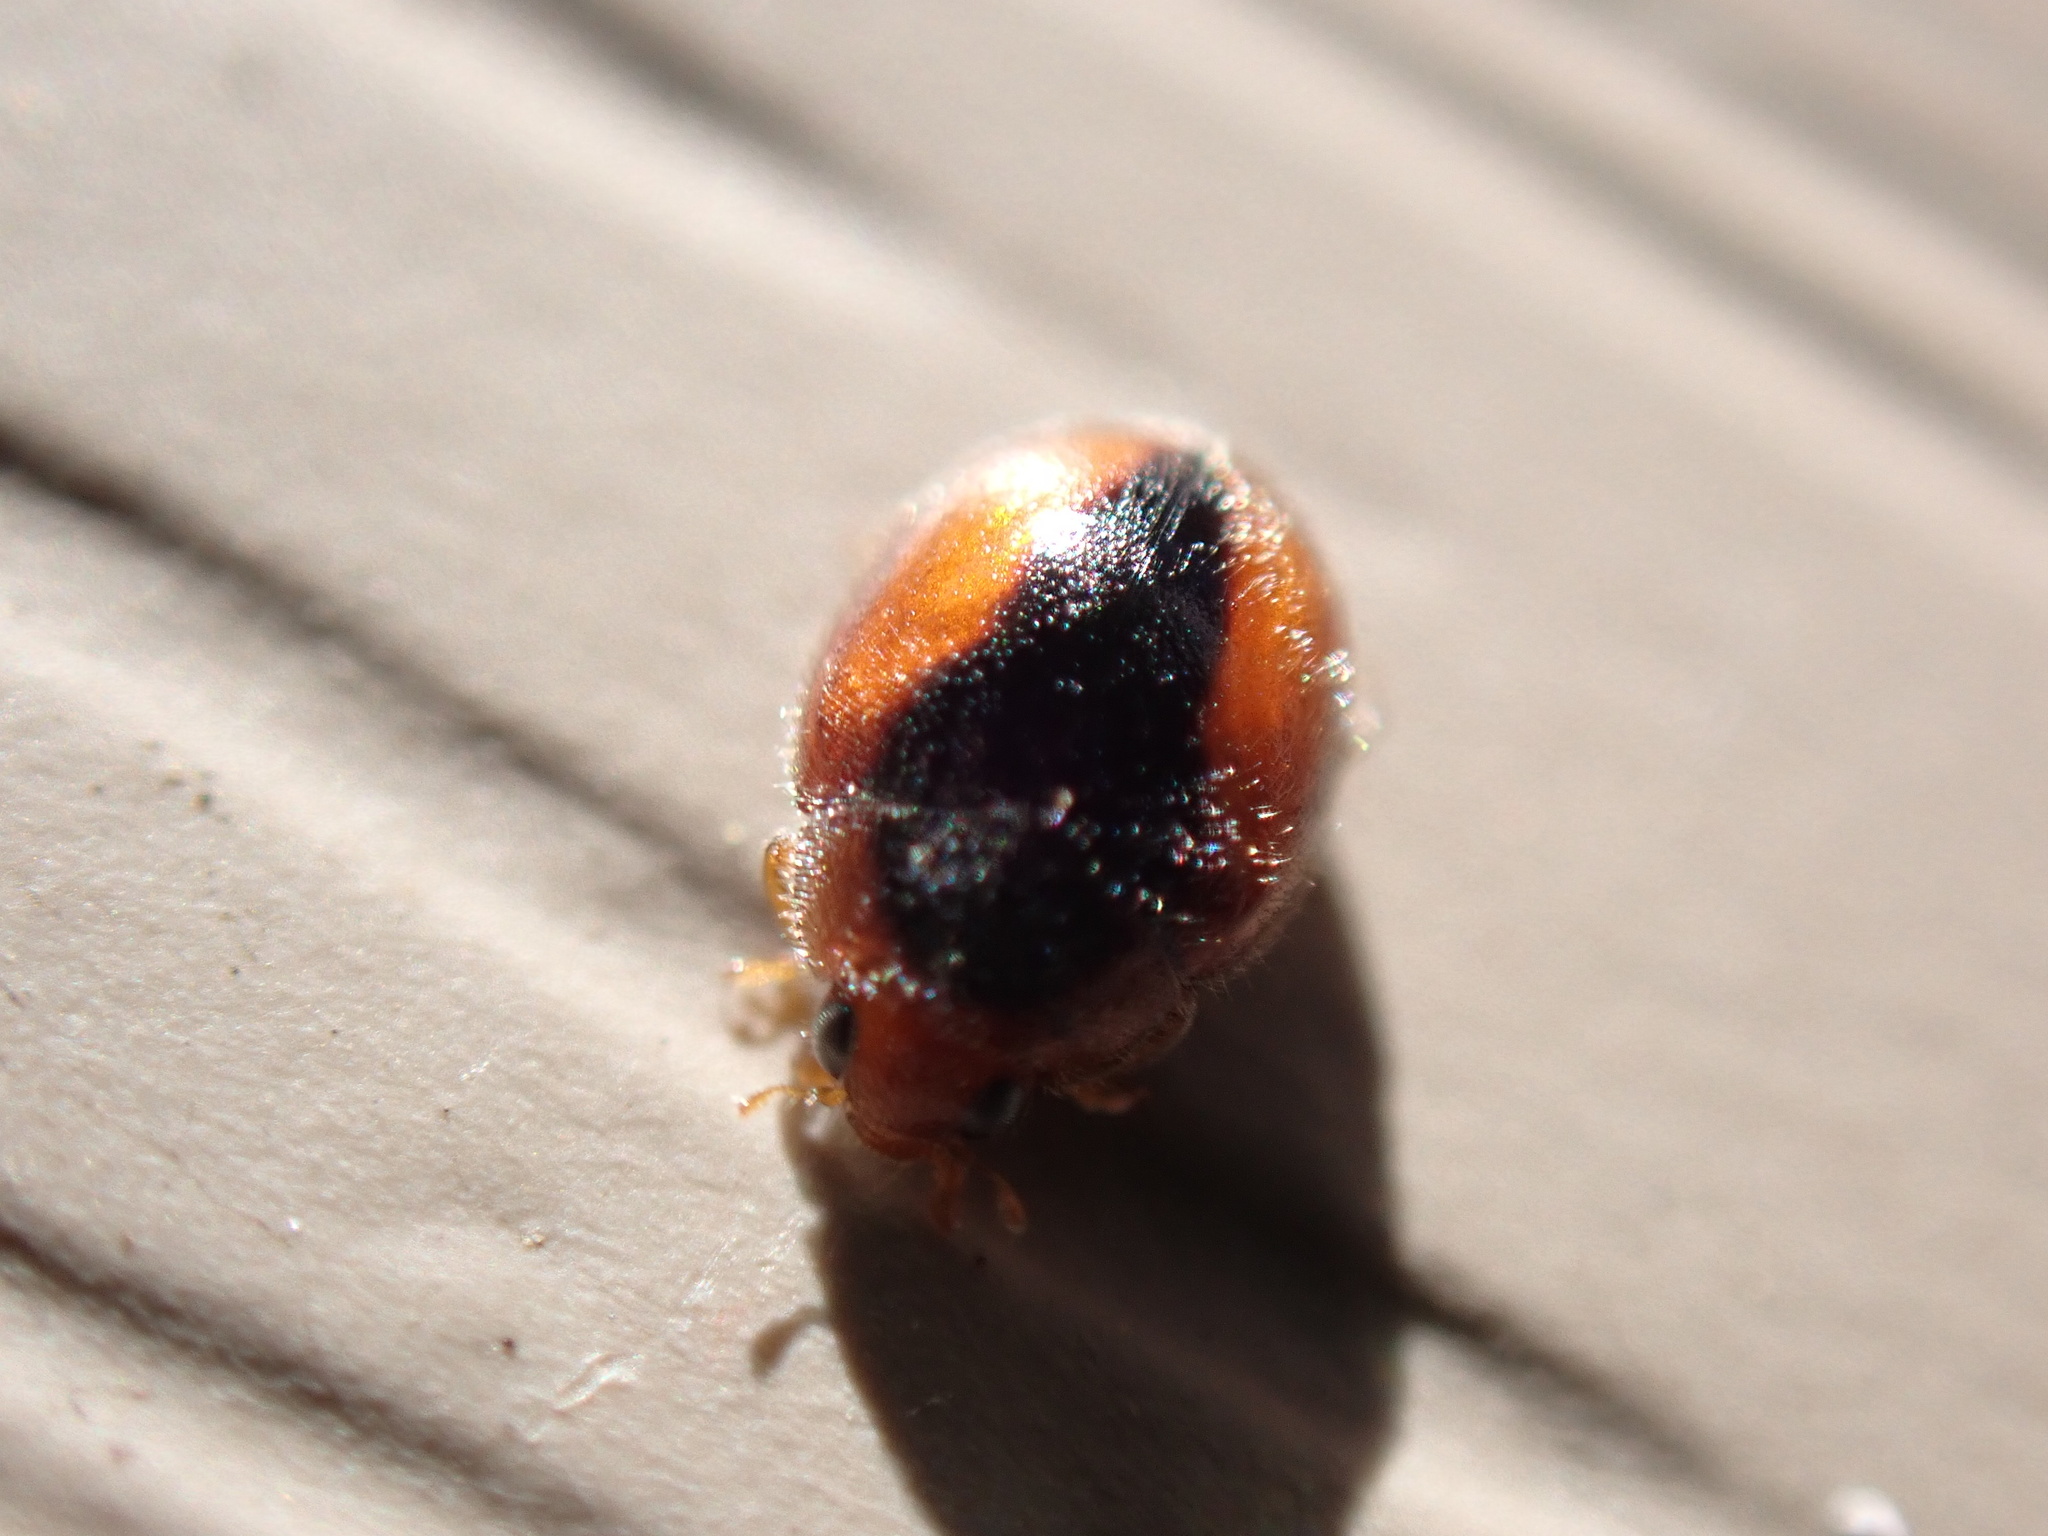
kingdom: Animalia
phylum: Arthropoda
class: Insecta
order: Coleoptera
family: Coccinellidae
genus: Scymnus
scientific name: Scymnus loewii
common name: Dusky lady beetle
